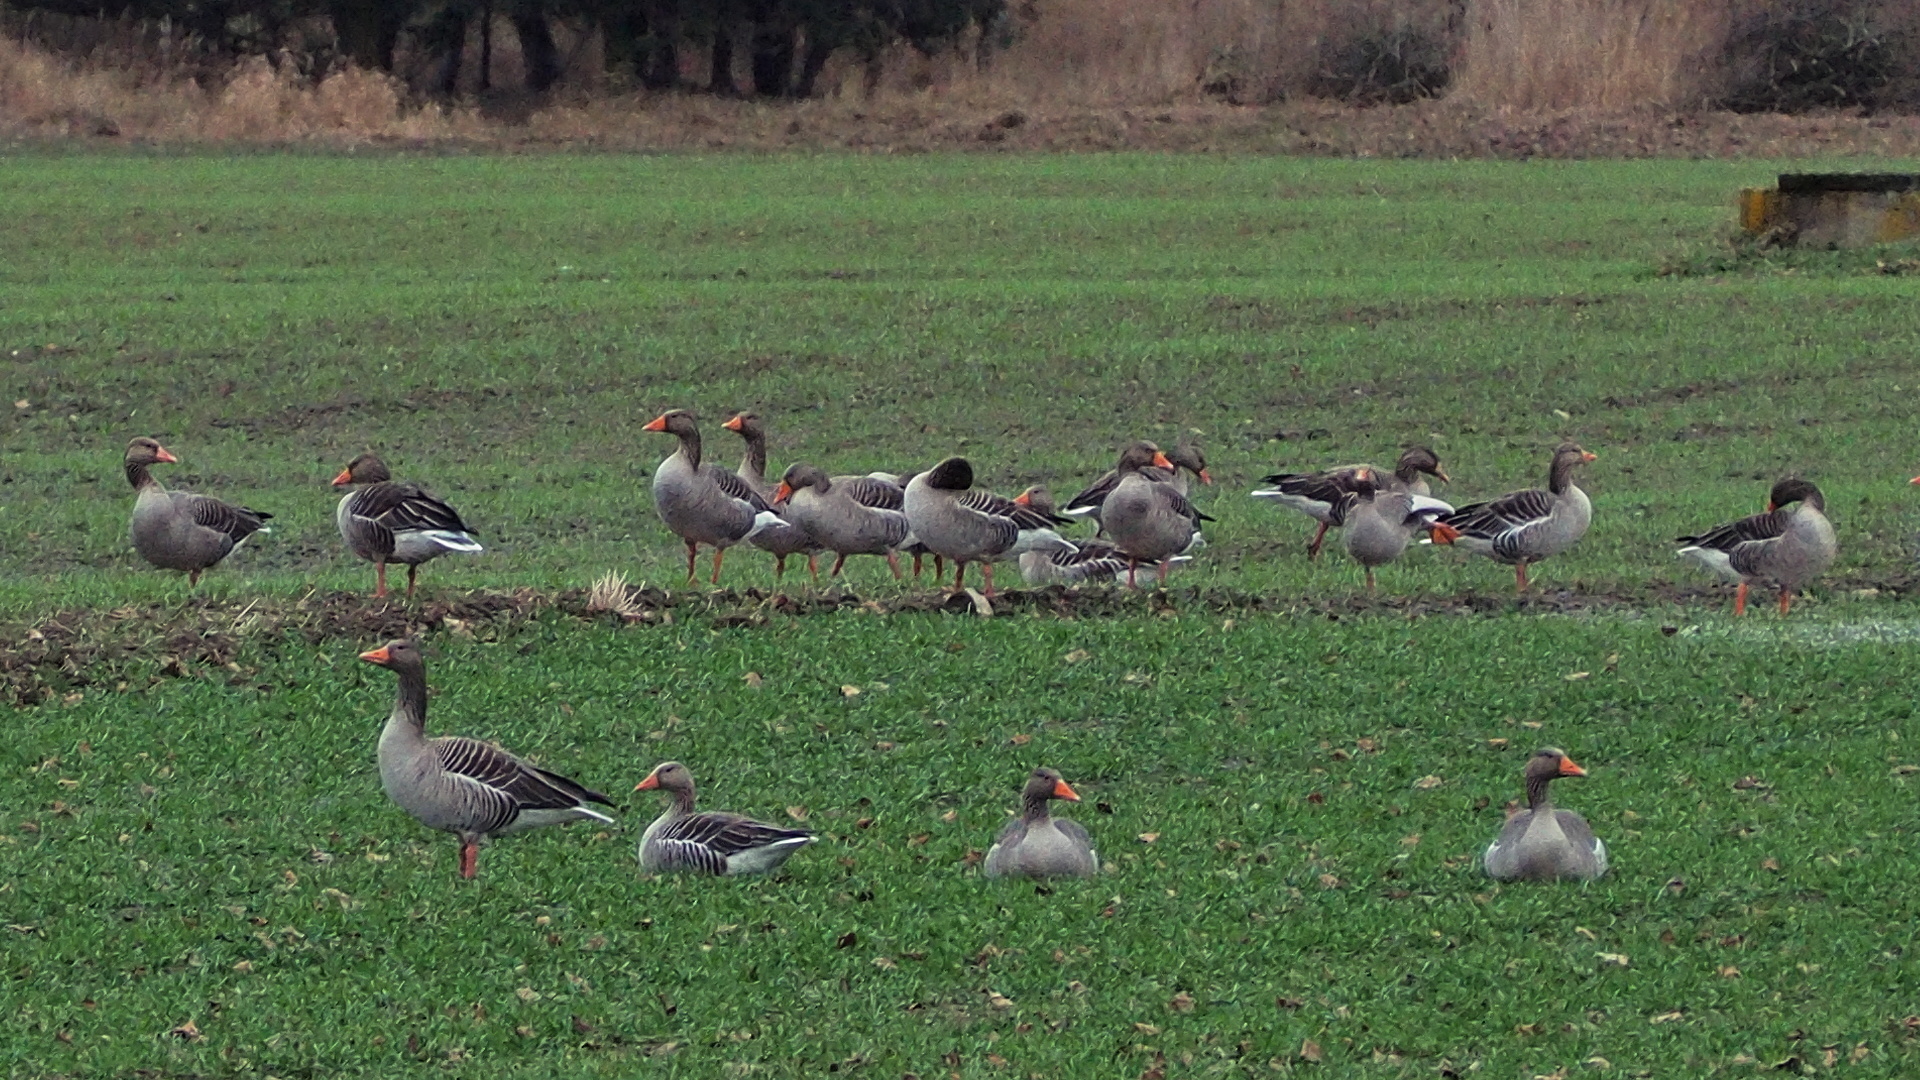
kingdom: Animalia
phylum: Chordata
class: Aves
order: Anseriformes
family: Anatidae
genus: Anser
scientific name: Anser anser
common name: Greylag goose
